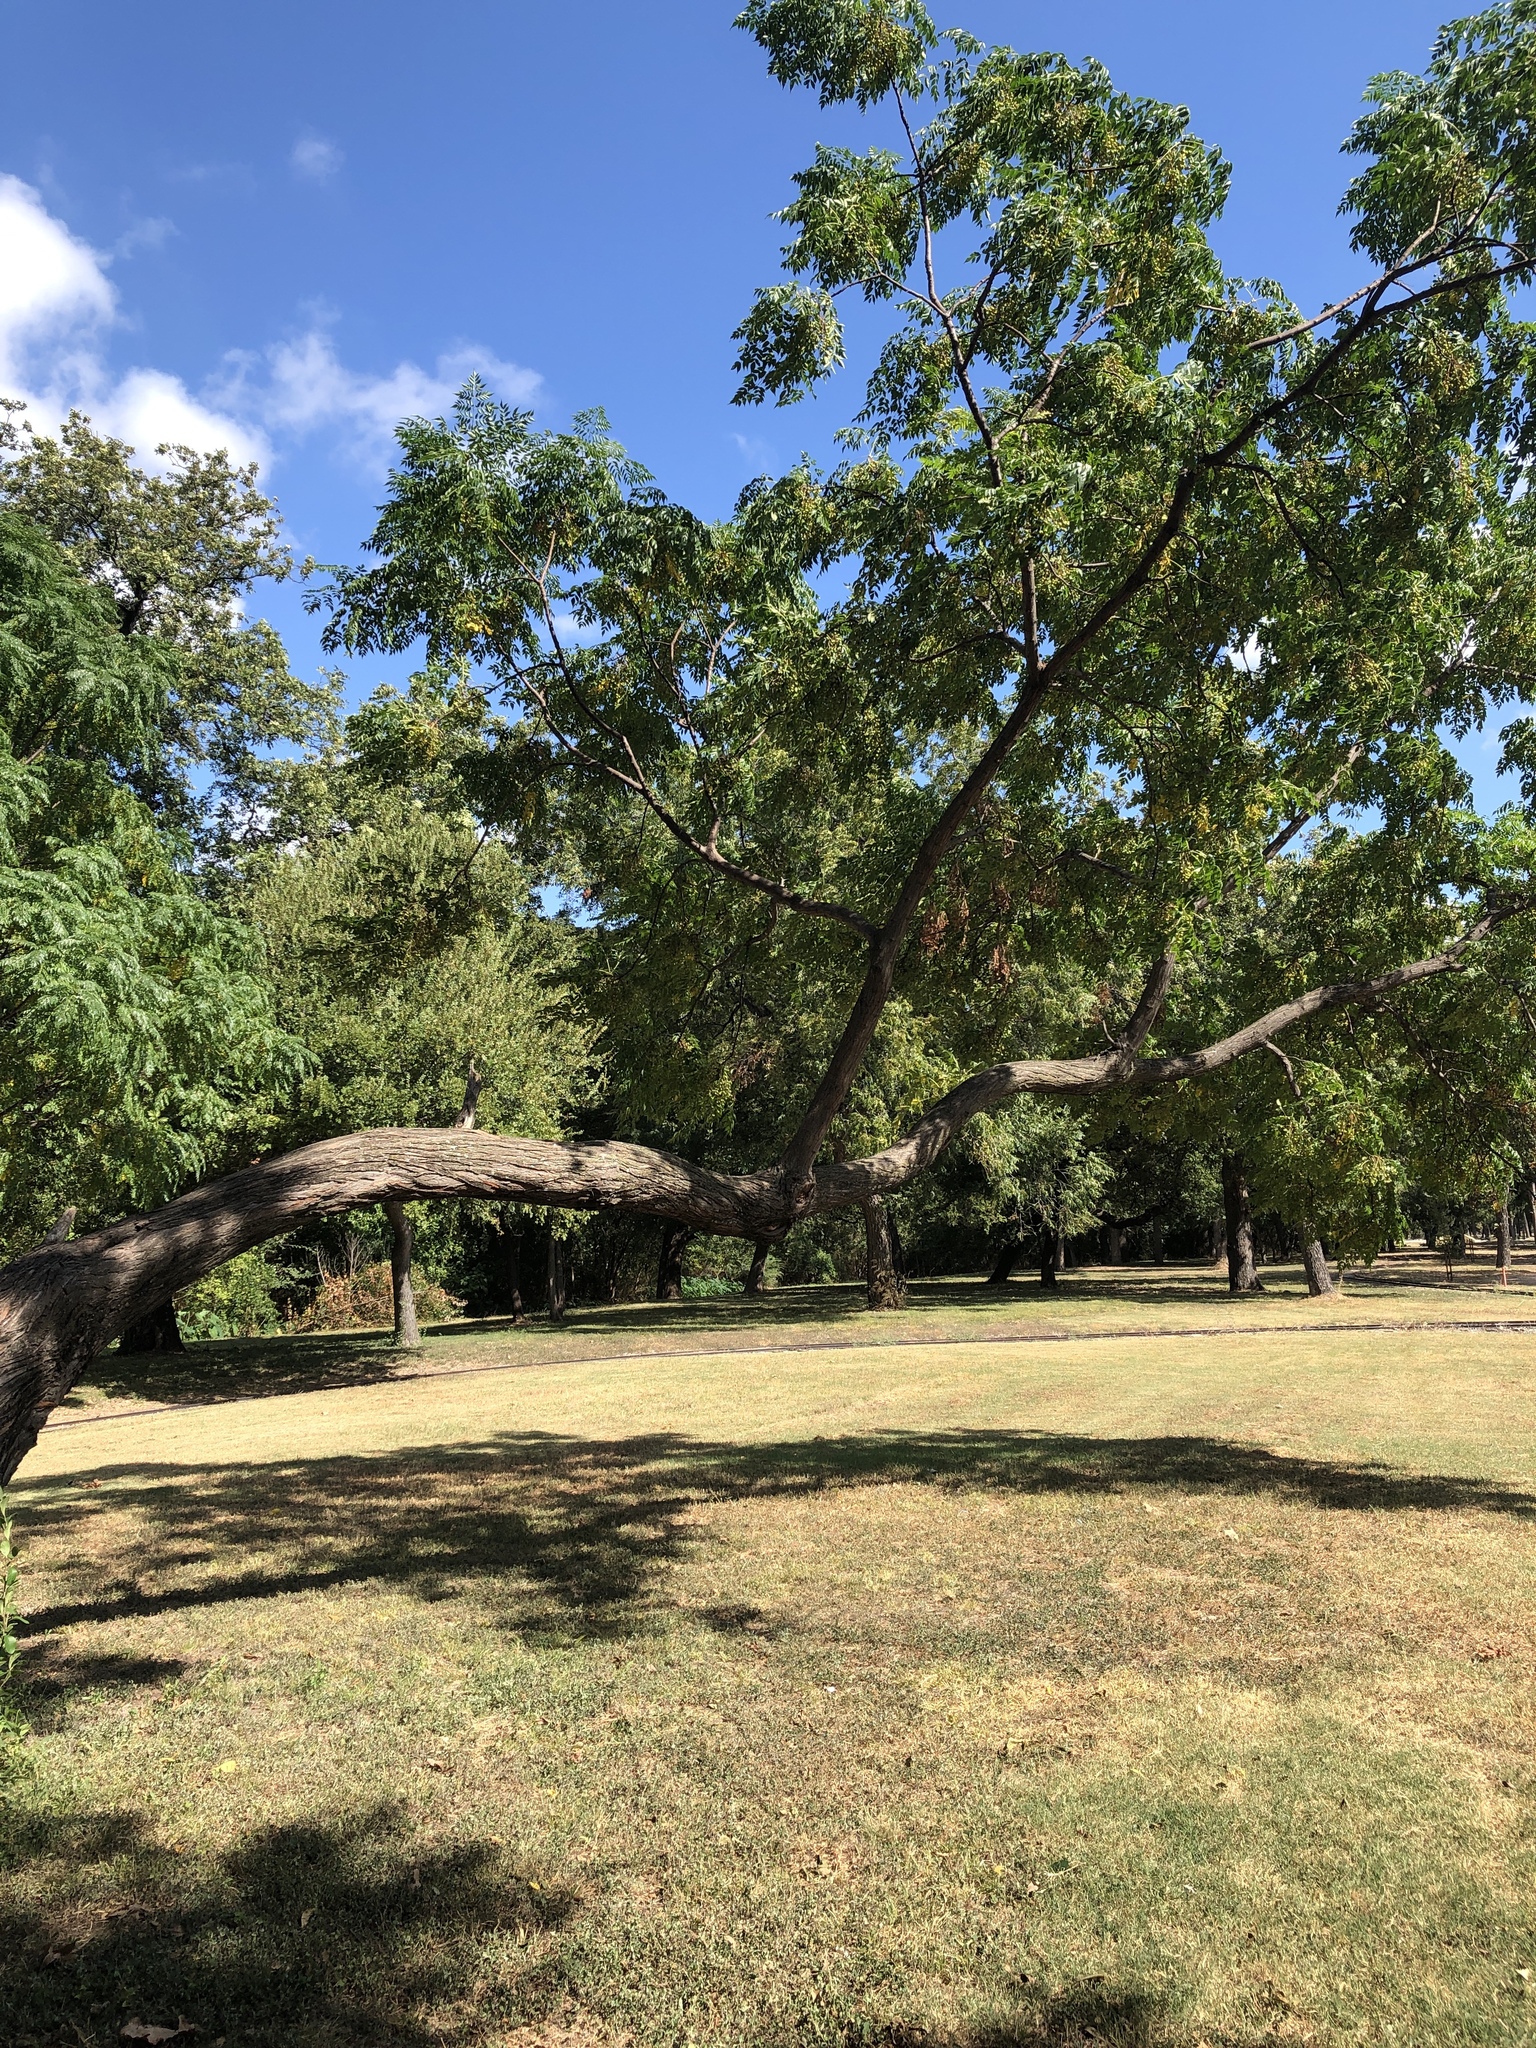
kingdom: Plantae
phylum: Tracheophyta
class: Magnoliopsida
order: Sapindales
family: Meliaceae
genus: Melia
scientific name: Melia azedarach
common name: Chinaberrytree
